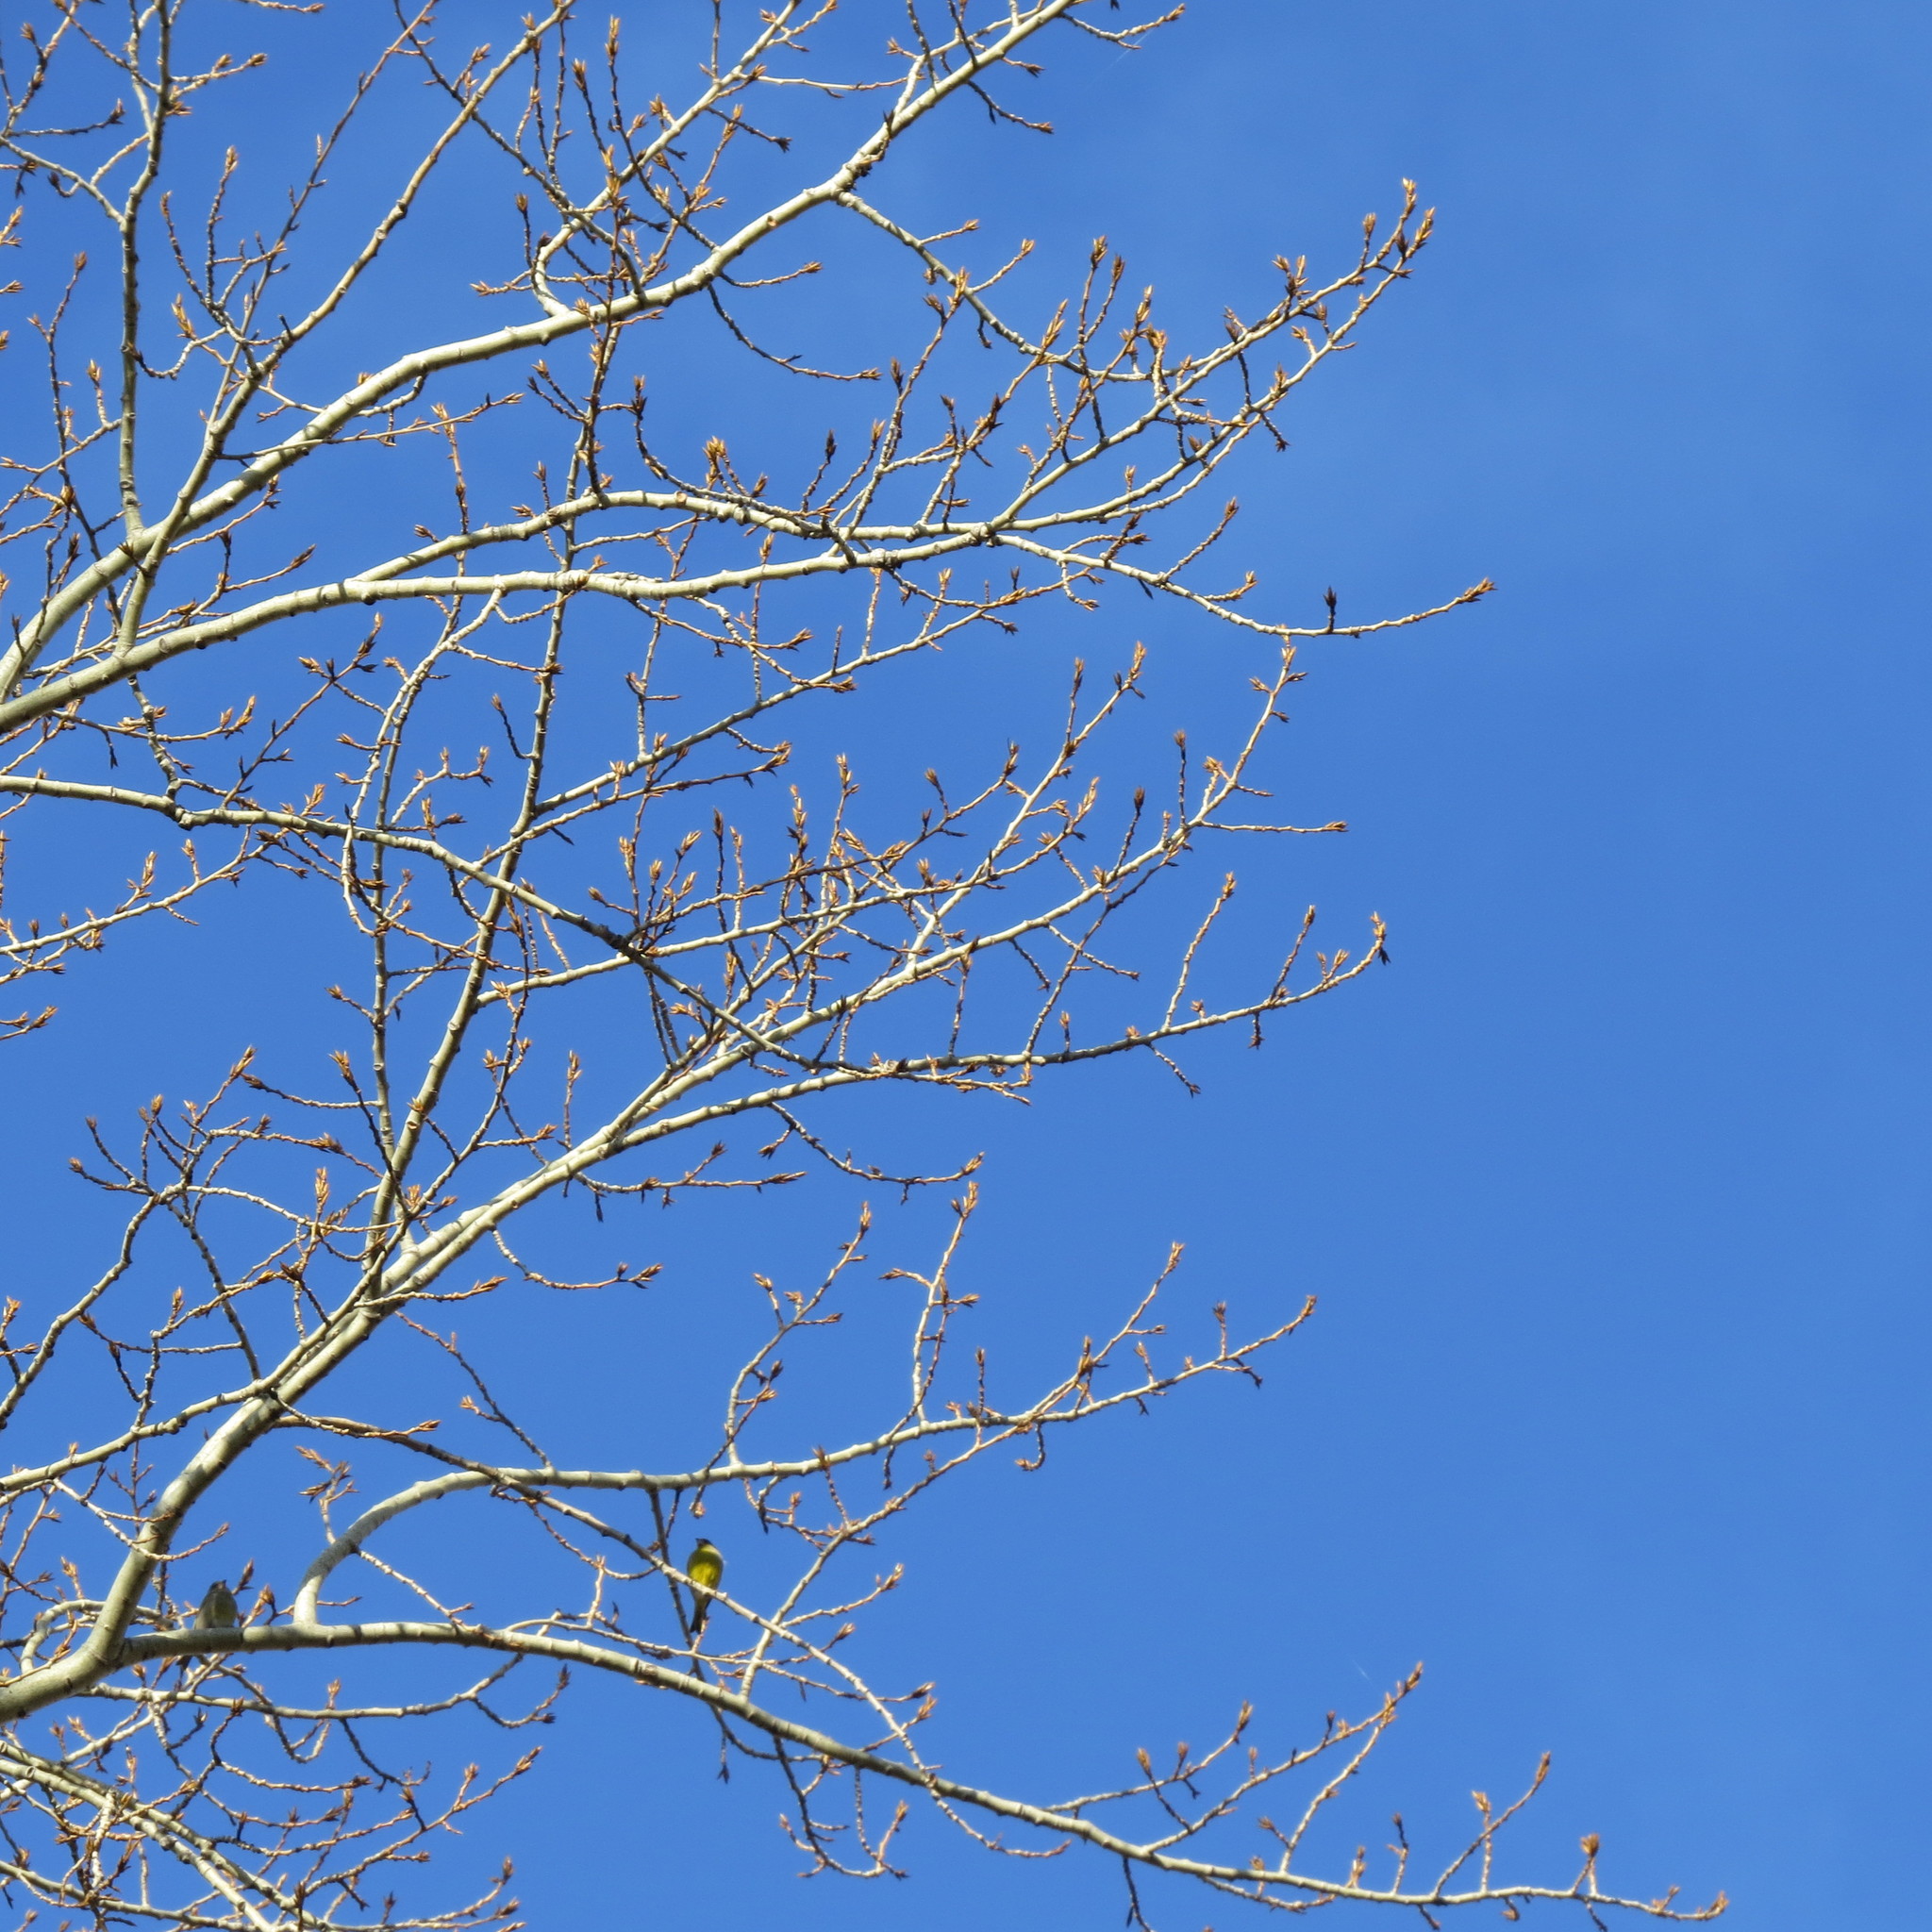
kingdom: Plantae
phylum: Tracheophyta
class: Liliopsida
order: Poales
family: Poaceae
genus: Chloris
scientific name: Chloris chloris
